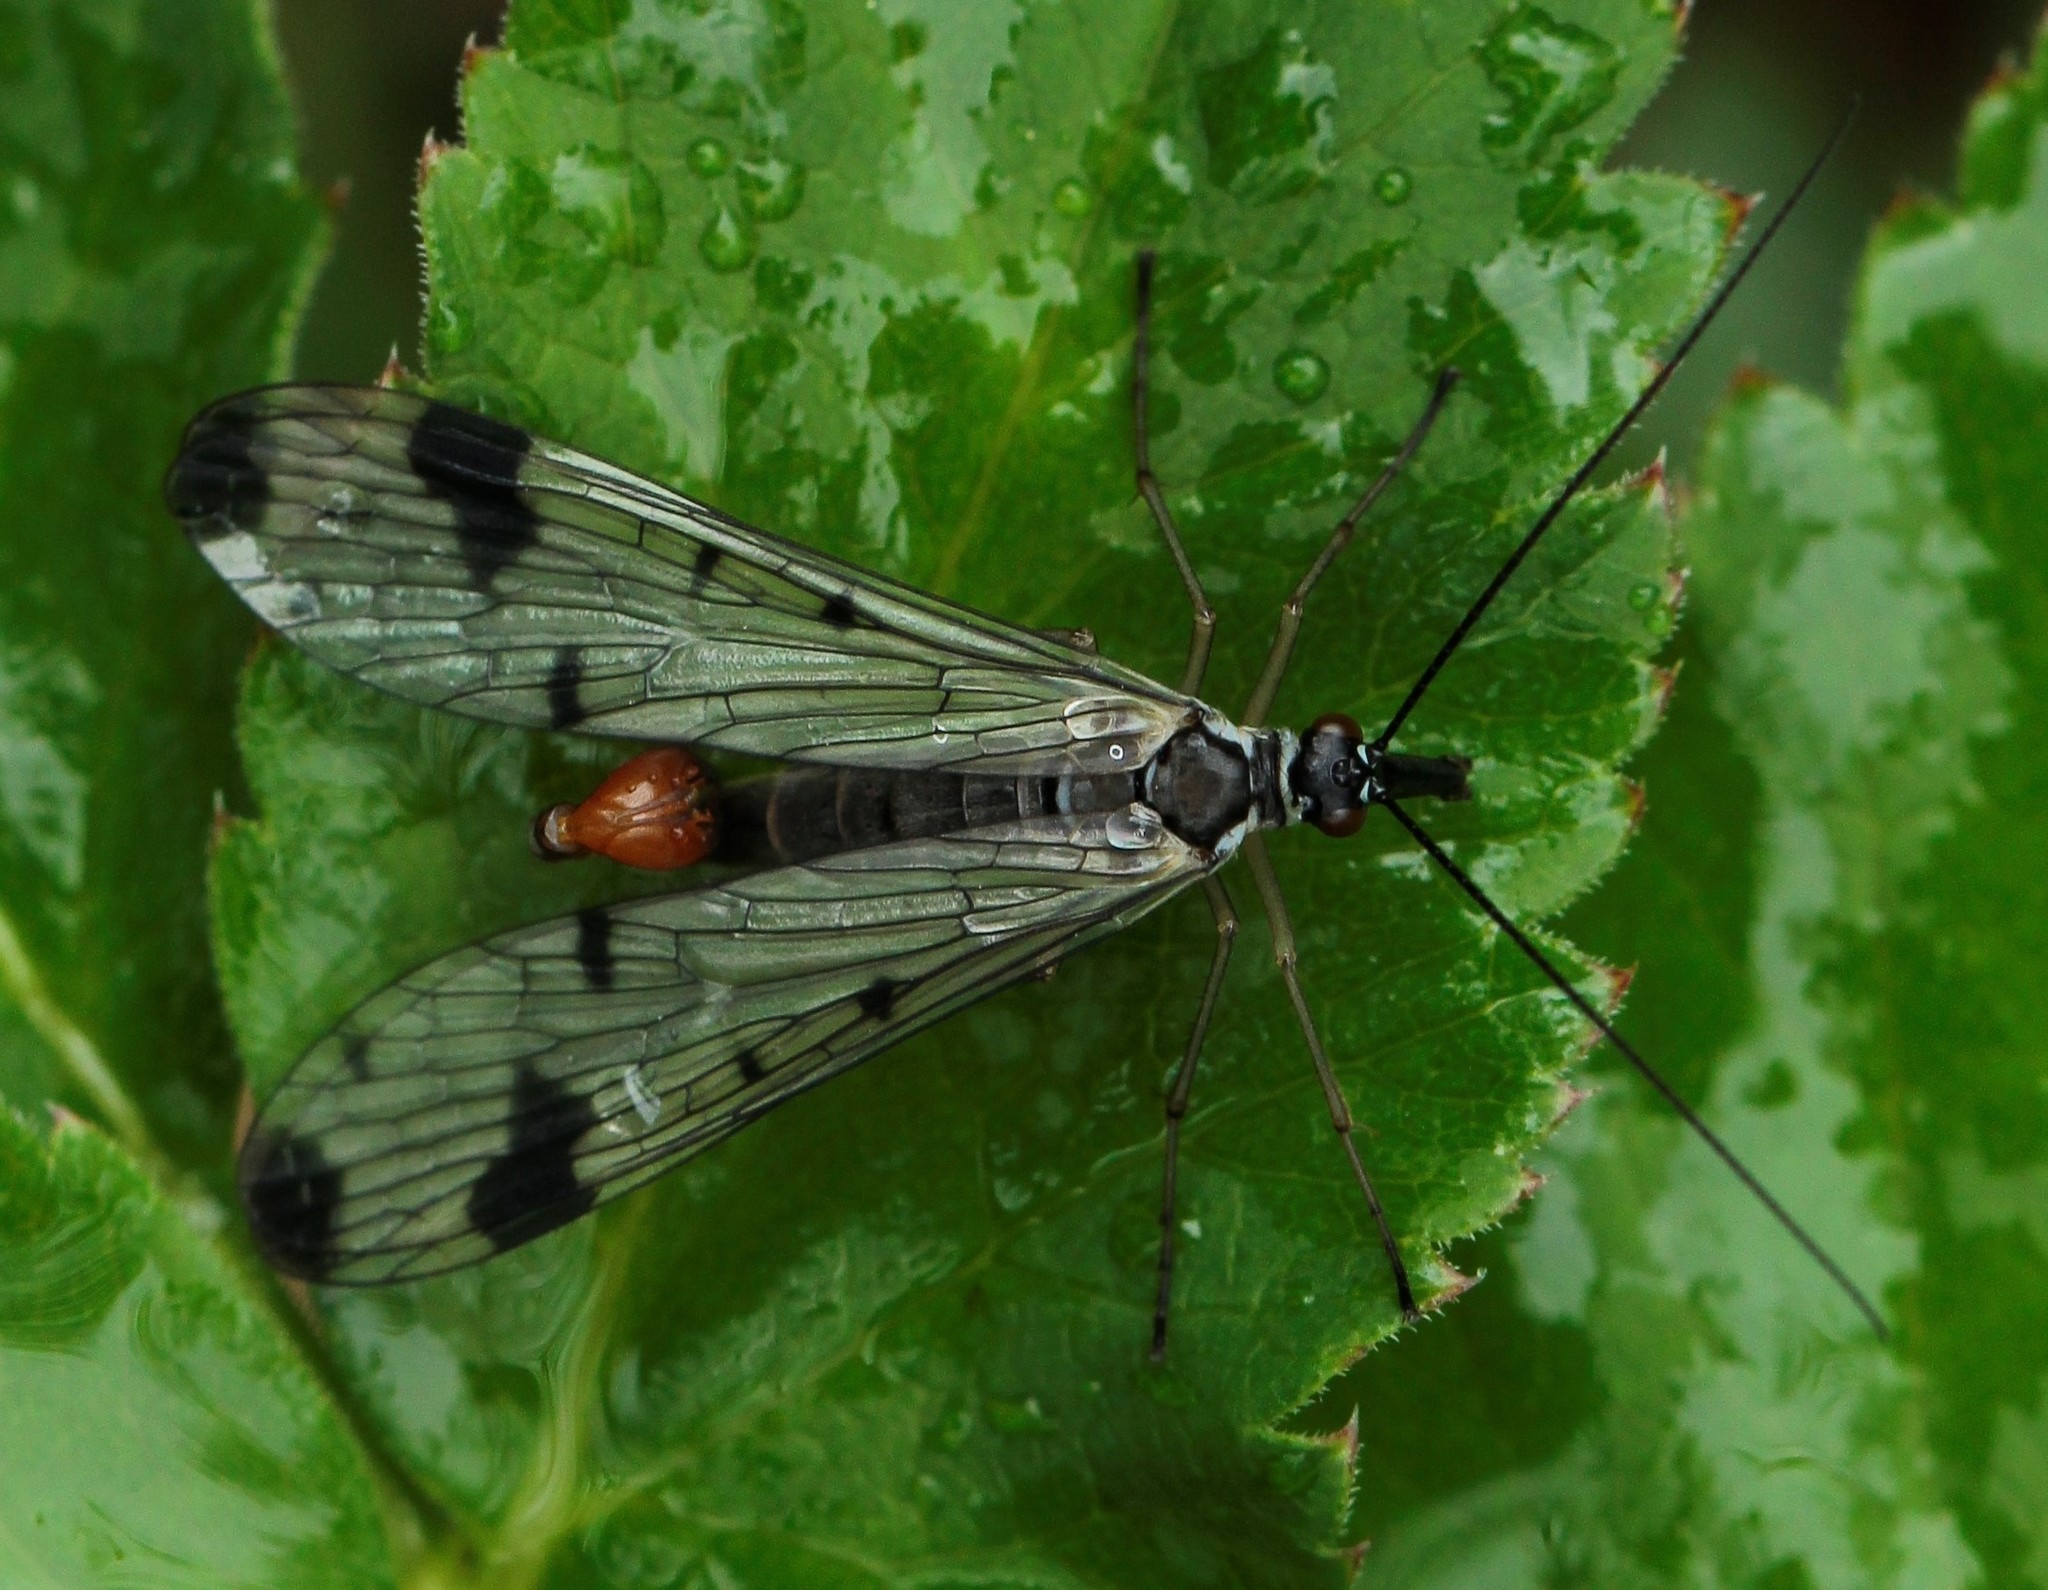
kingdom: Animalia
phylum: Arthropoda
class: Insecta
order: Mecoptera
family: Panorpidae
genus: Panorpa
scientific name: Panorpa caucasica
